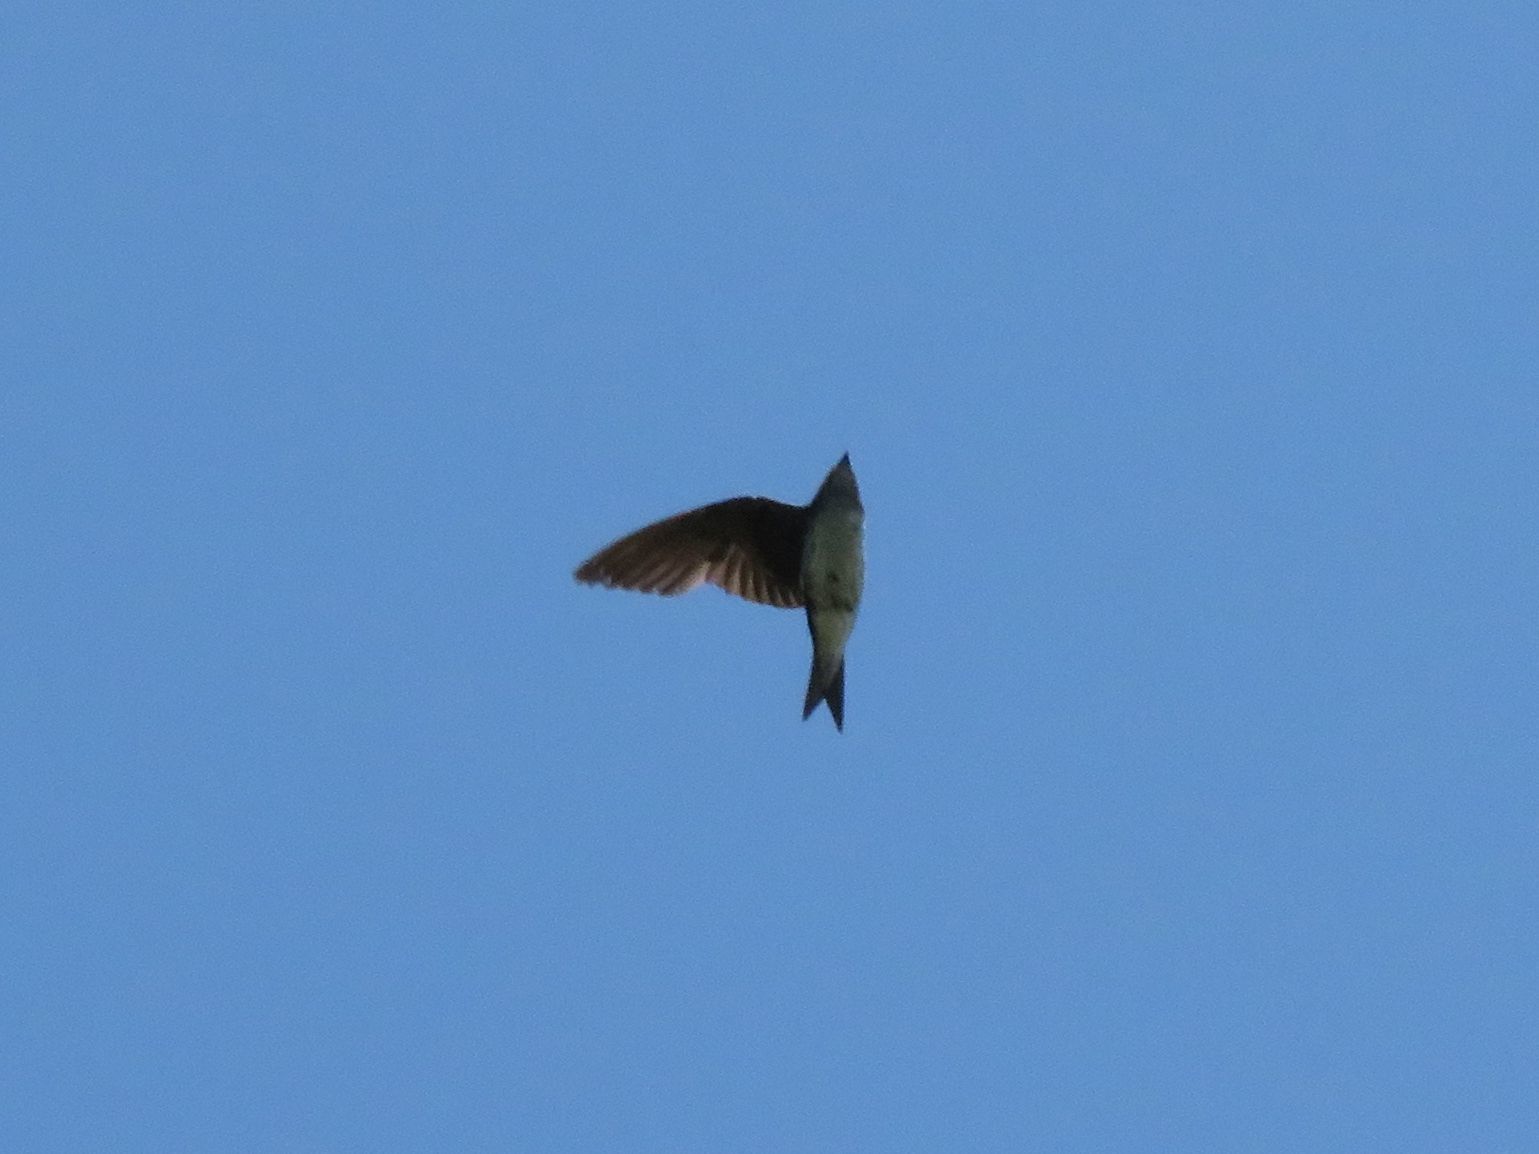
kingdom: Animalia
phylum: Chordata
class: Aves
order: Passeriformes
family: Hirundinidae
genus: Progne
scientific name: Progne chalybea
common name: Grey-breasted martin
